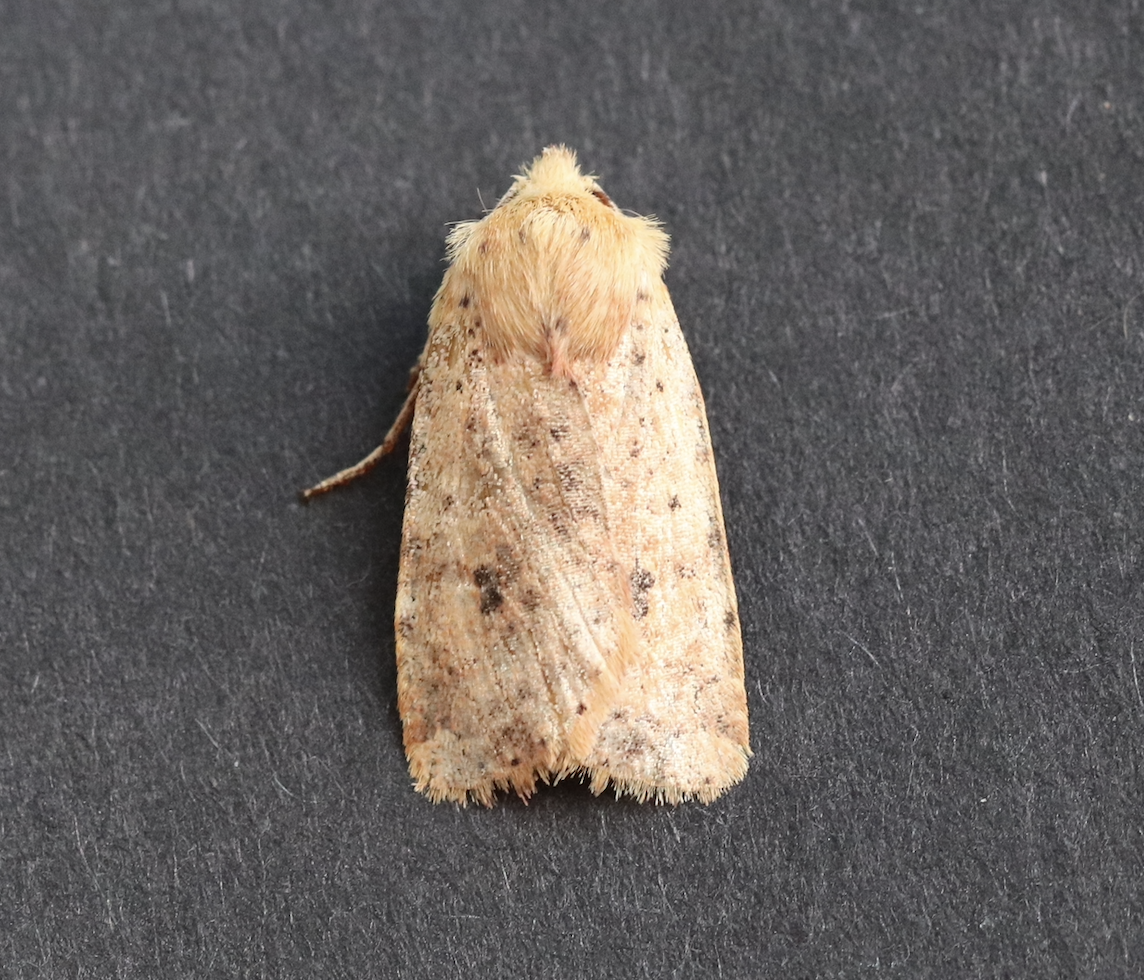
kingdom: Animalia
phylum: Arthropoda
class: Insecta
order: Lepidoptera
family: Noctuidae
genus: Conistra
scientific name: Conistra rubiginea
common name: Dotted chestnut
